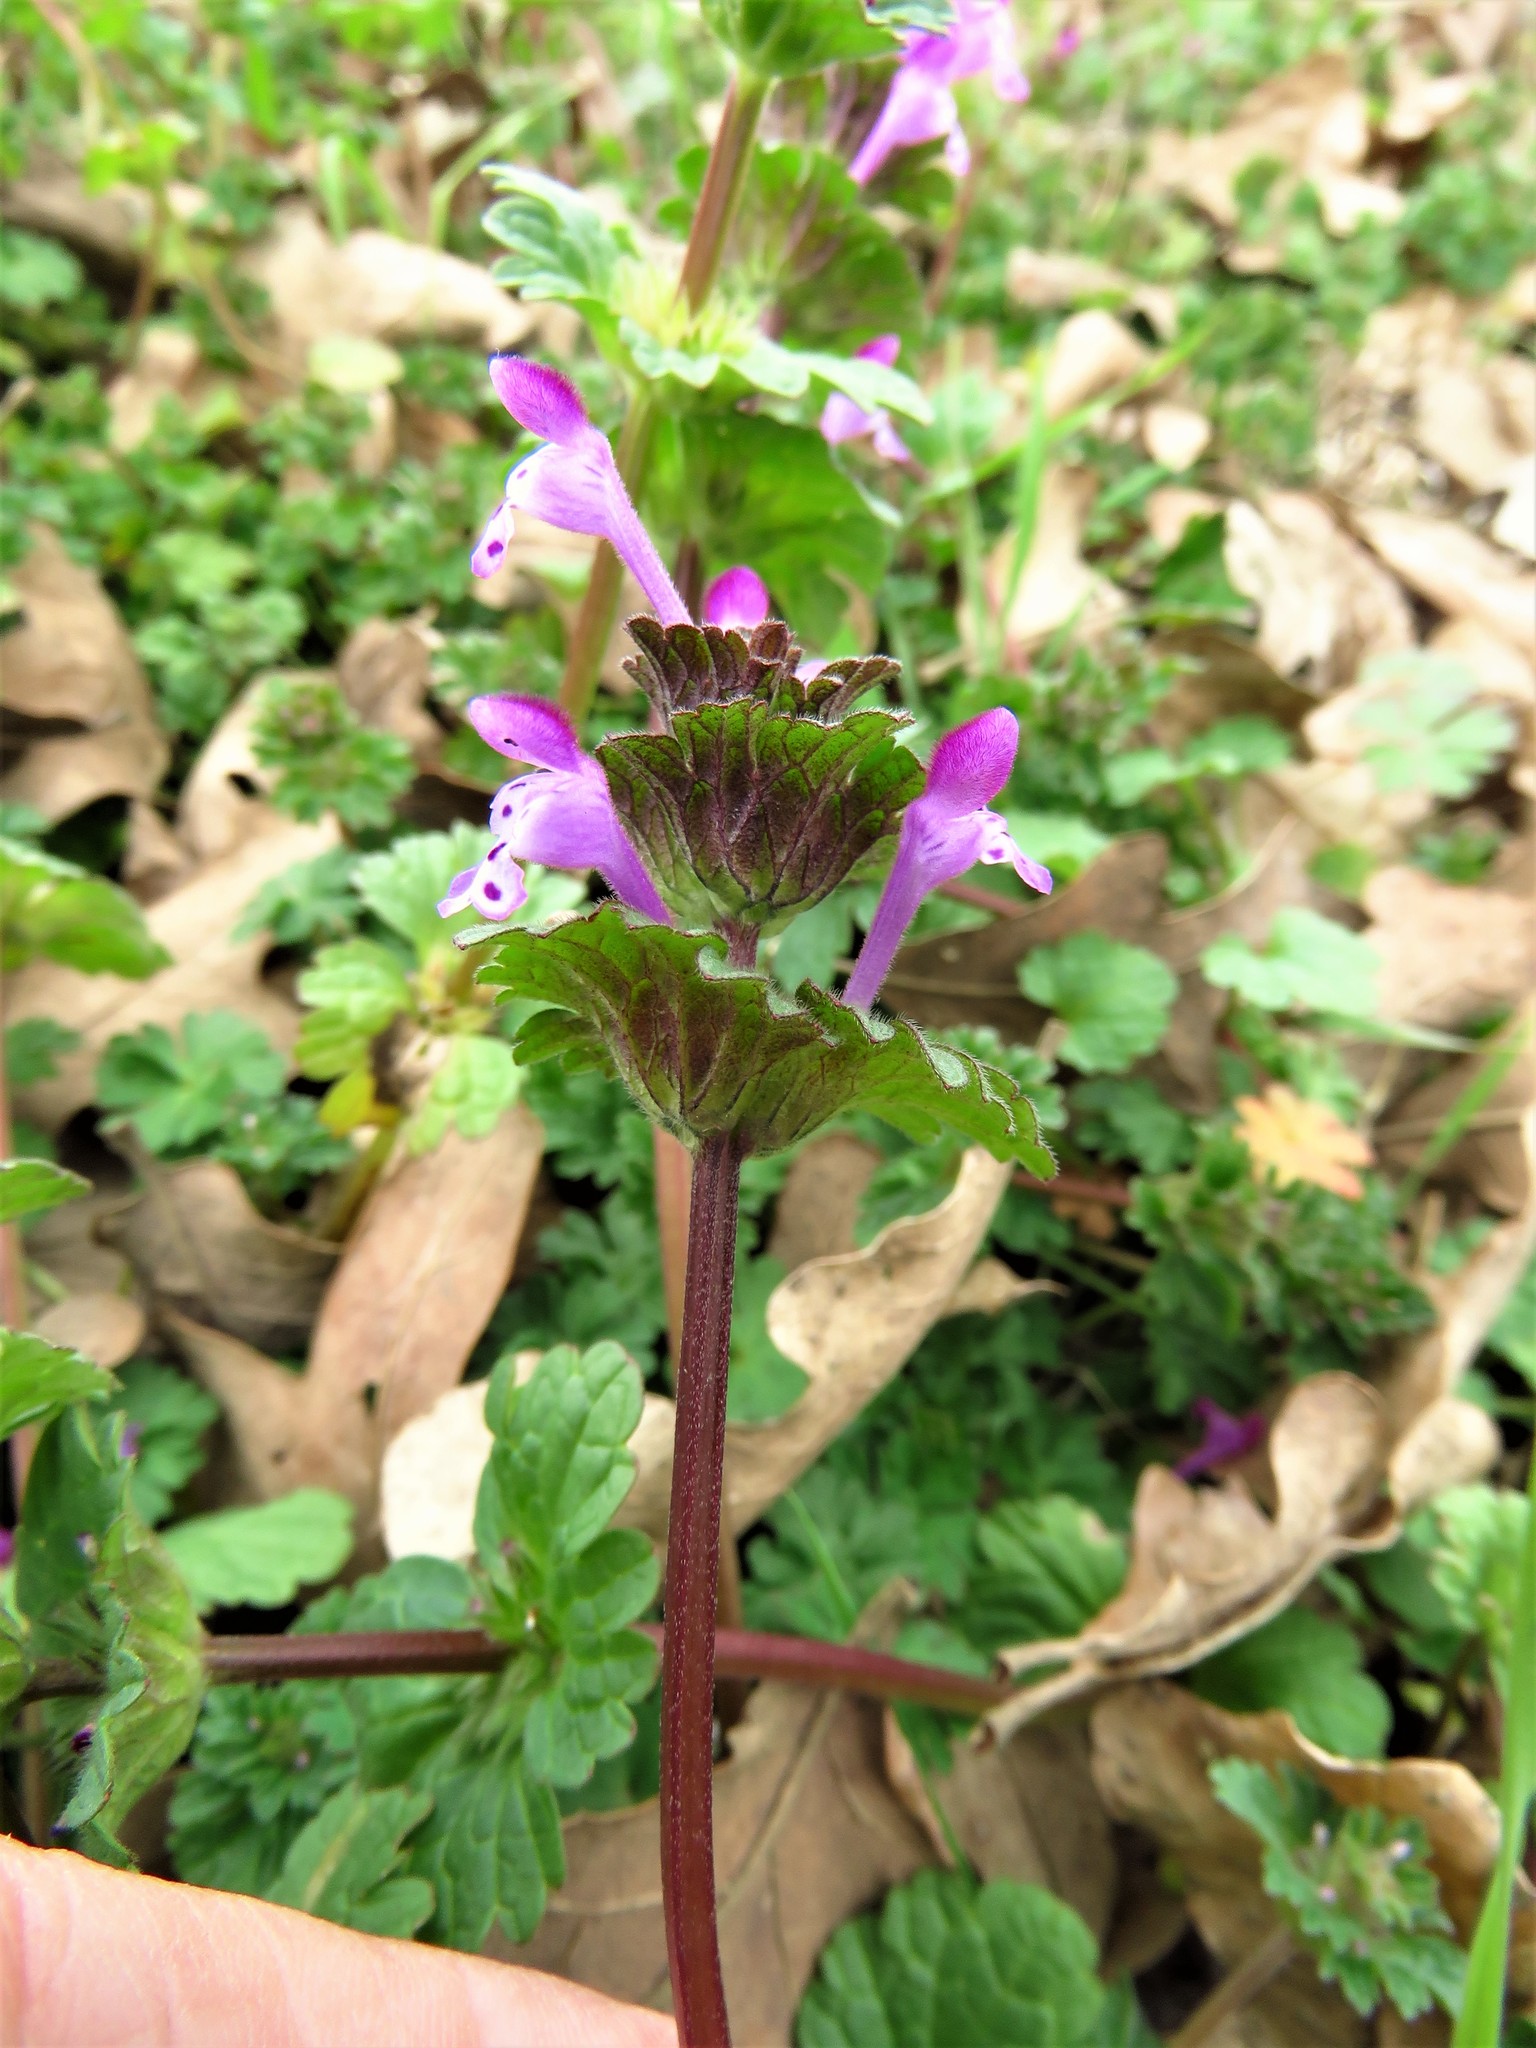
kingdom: Plantae
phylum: Tracheophyta
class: Magnoliopsida
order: Lamiales
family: Lamiaceae
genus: Lamium
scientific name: Lamium amplexicaule
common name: Henbit dead-nettle
